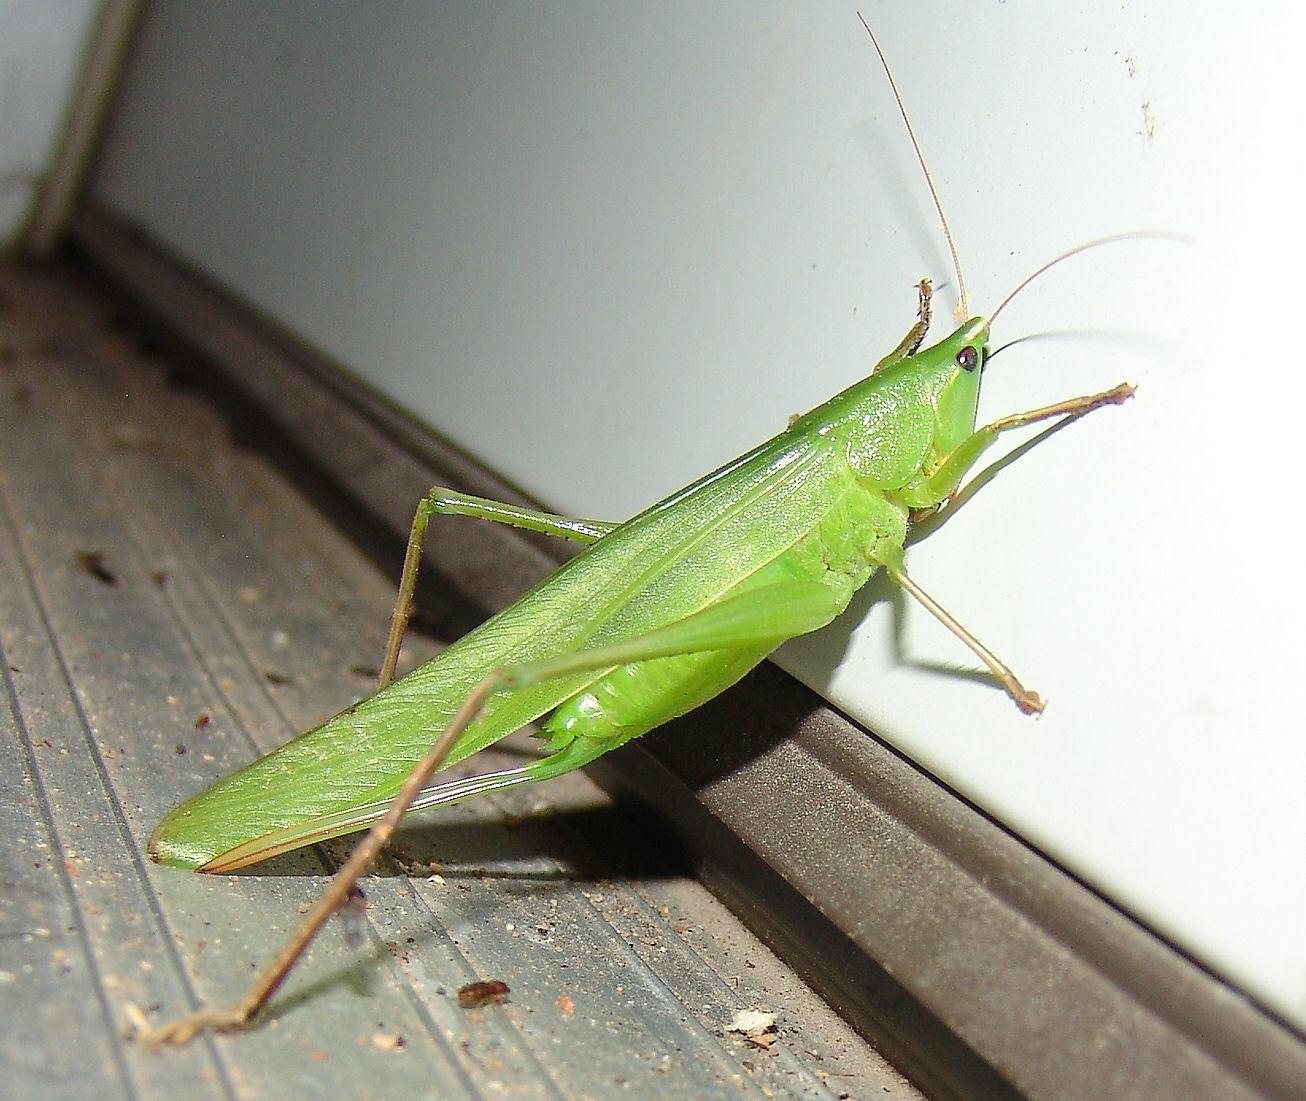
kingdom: Animalia
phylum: Arthropoda
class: Insecta
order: Orthoptera
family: Tettigoniidae
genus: Neoconocephalus
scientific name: Neoconocephalus triops
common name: Broad-tipped conehead
